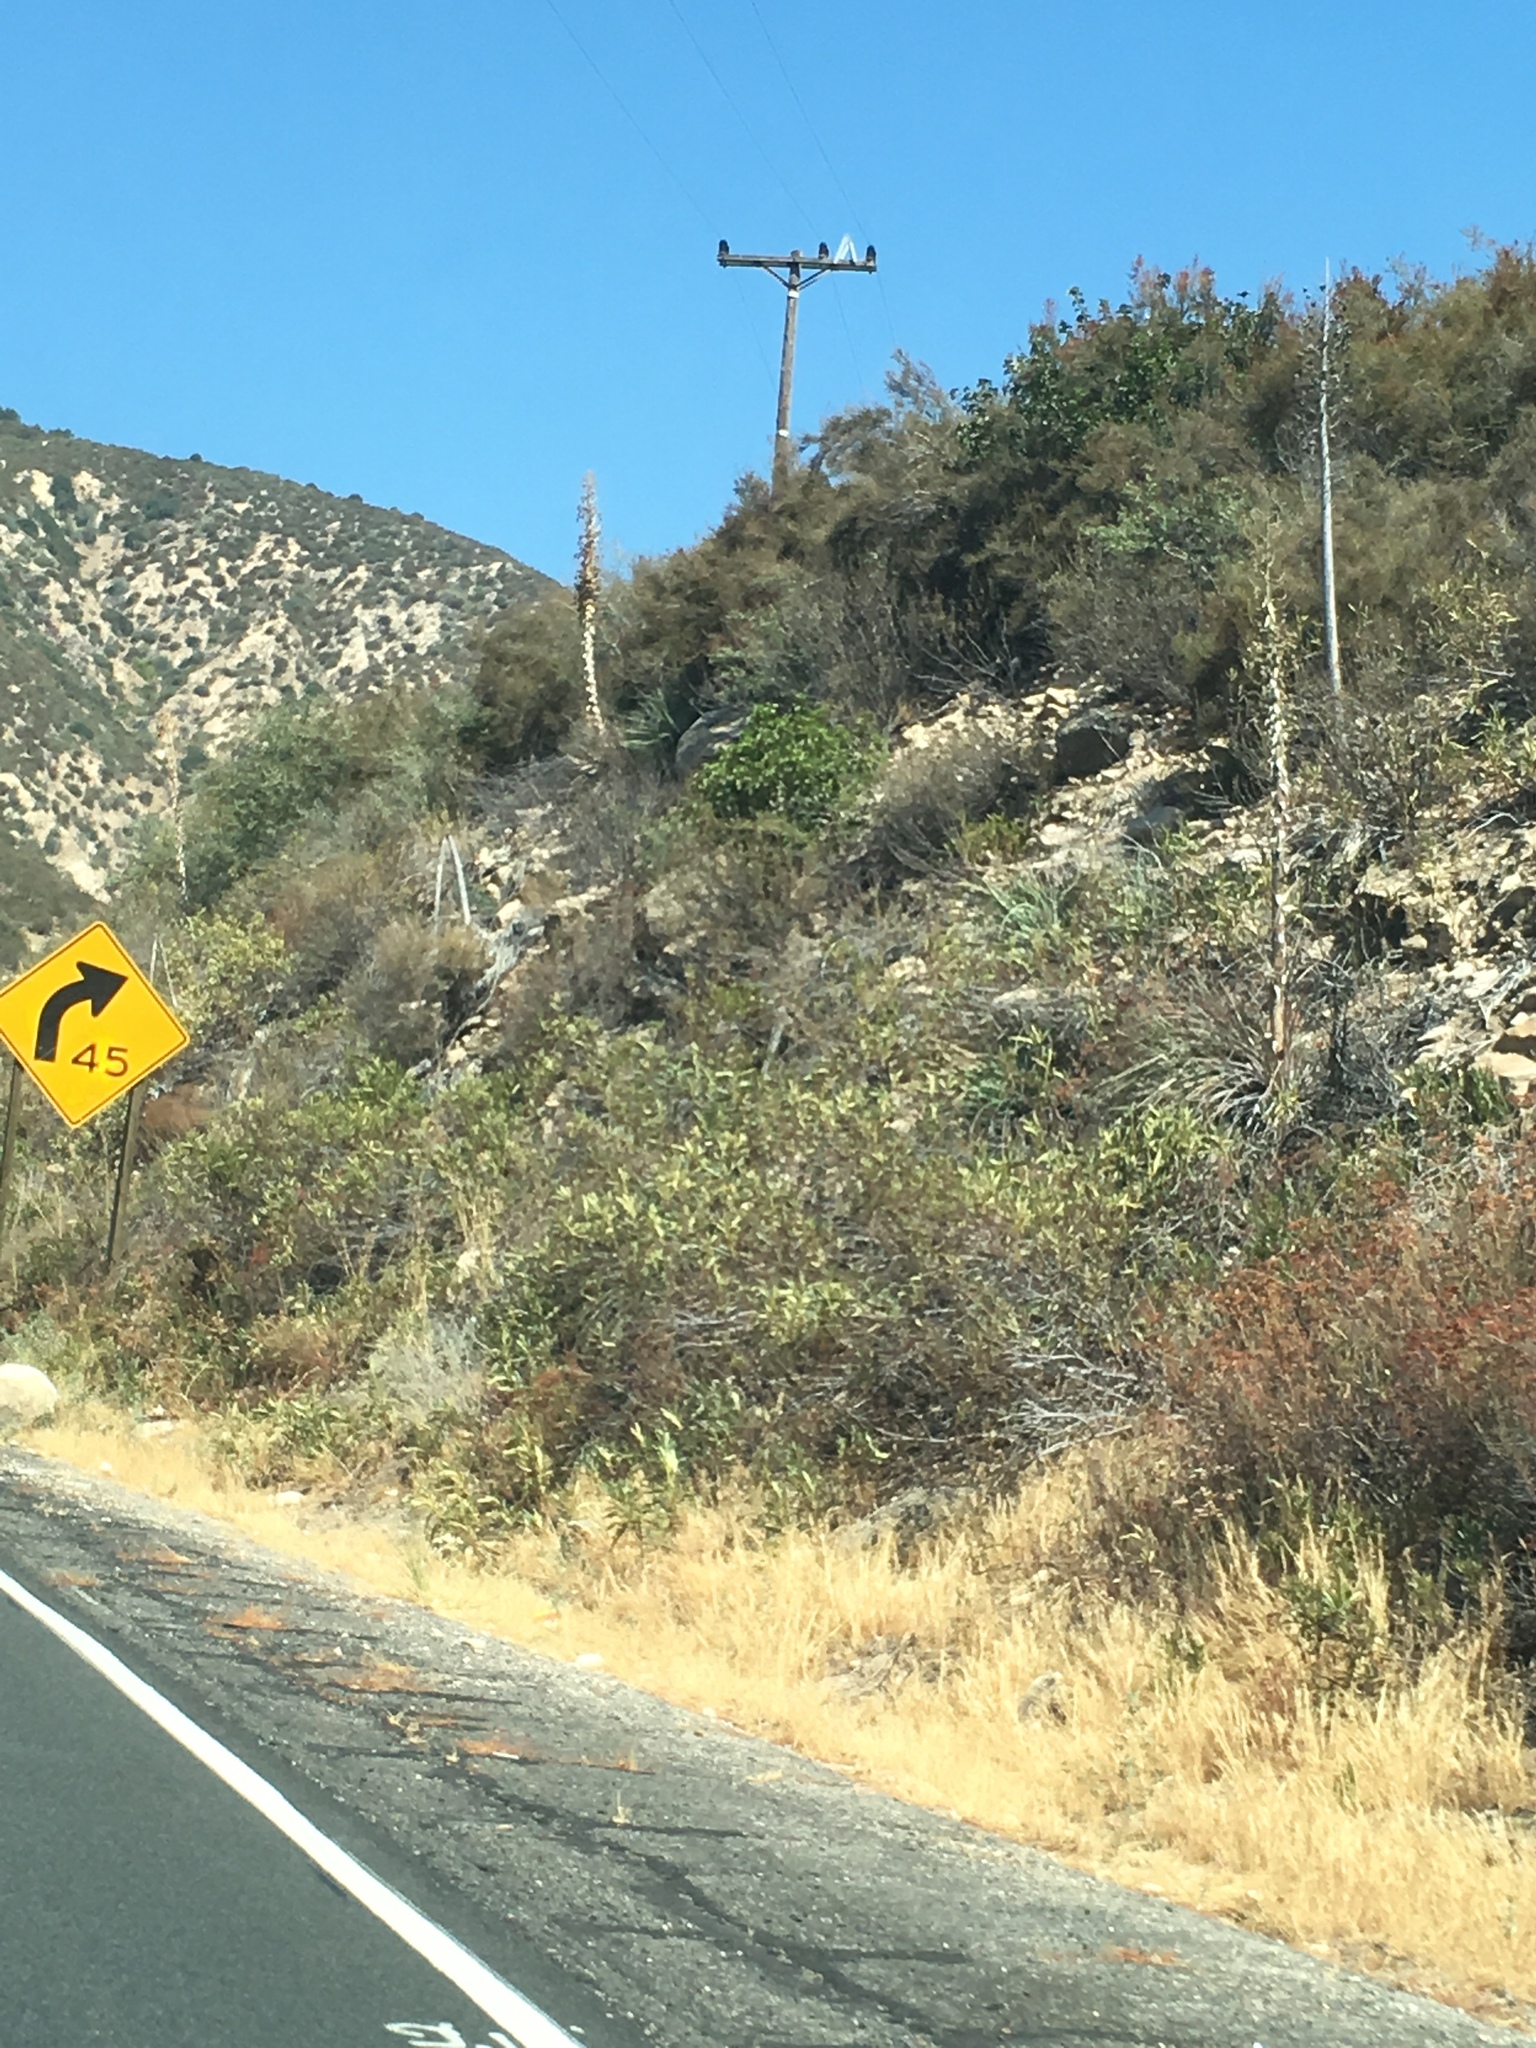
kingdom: Plantae
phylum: Tracheophyta
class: Liliopsida
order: Asparagales
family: Asparagaceae
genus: Hesperoyucca
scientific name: Hesperoyucca whipplei
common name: Our lord's-candle
